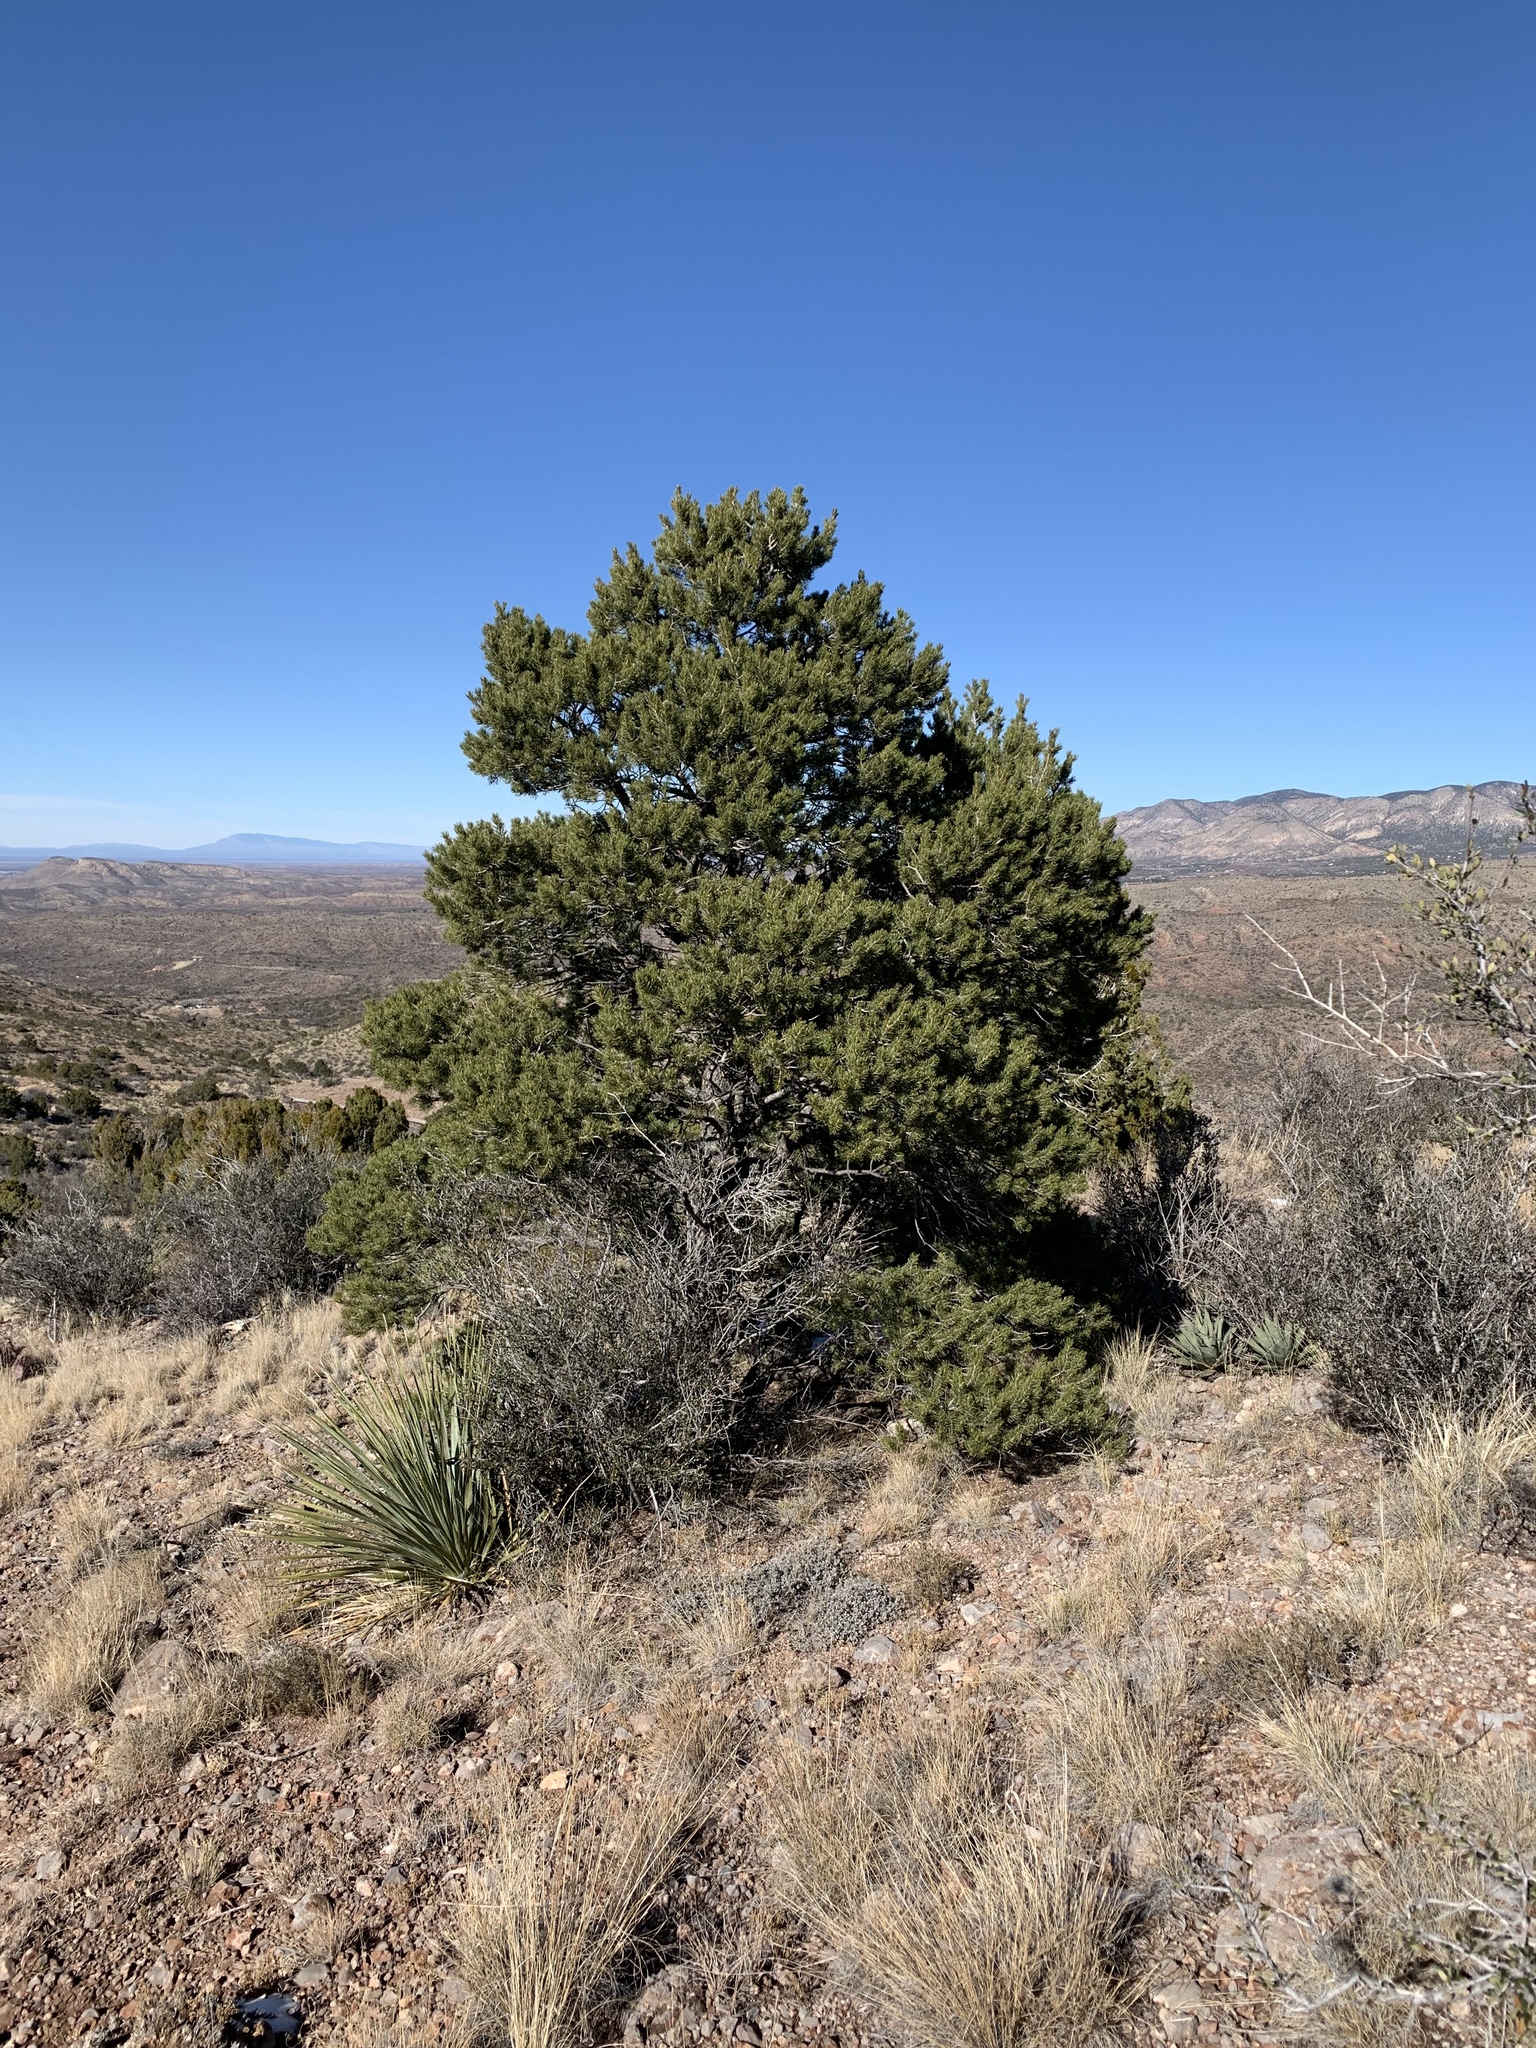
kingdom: Plantae
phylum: Tracheophyta
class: Pinopsida
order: Pinales
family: Pinaceae
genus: Pinus
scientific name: Pinus edulis
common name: Colorado pinyon
